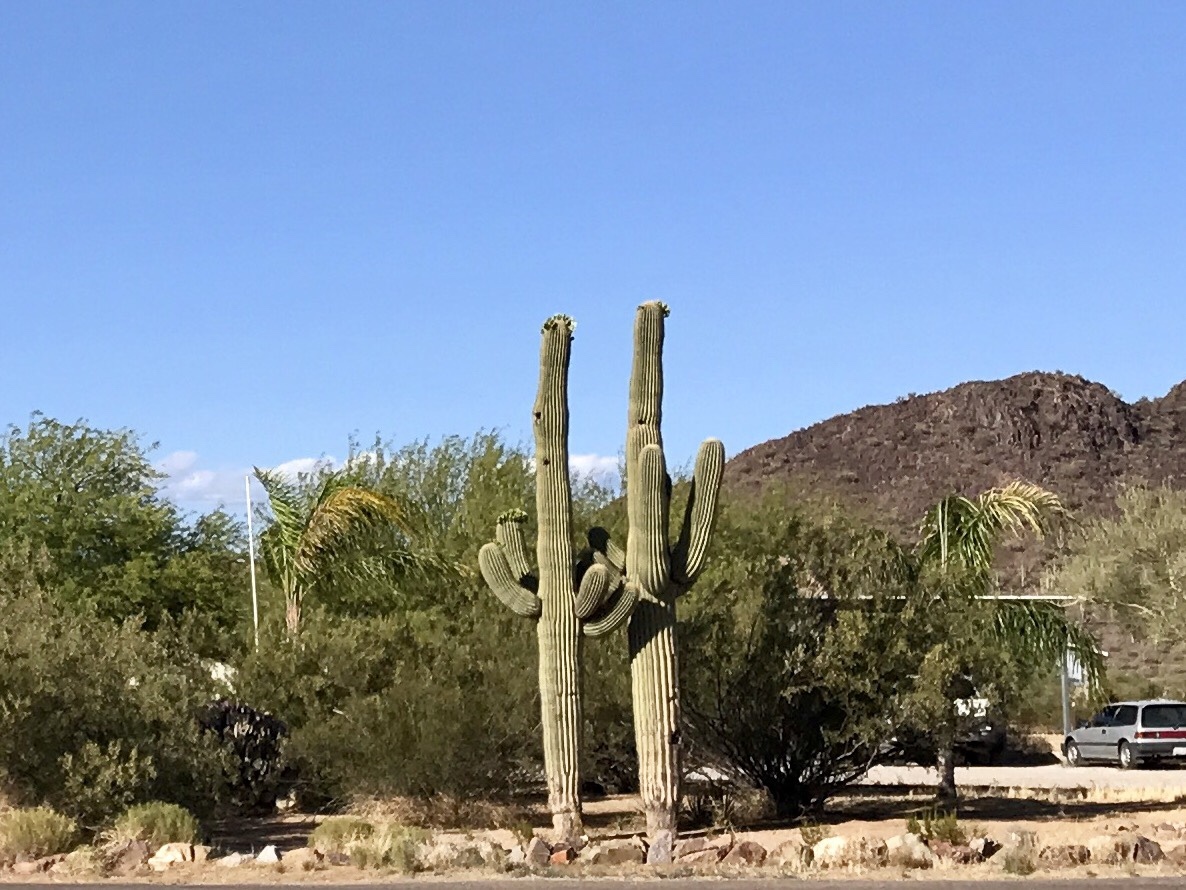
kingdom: Plantae
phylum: Tracheophyta
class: Magnoliopsida
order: Caryophyllales
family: Cactaceae
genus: Carnegiea
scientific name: Carnegiea gigantea
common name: Saguaro
